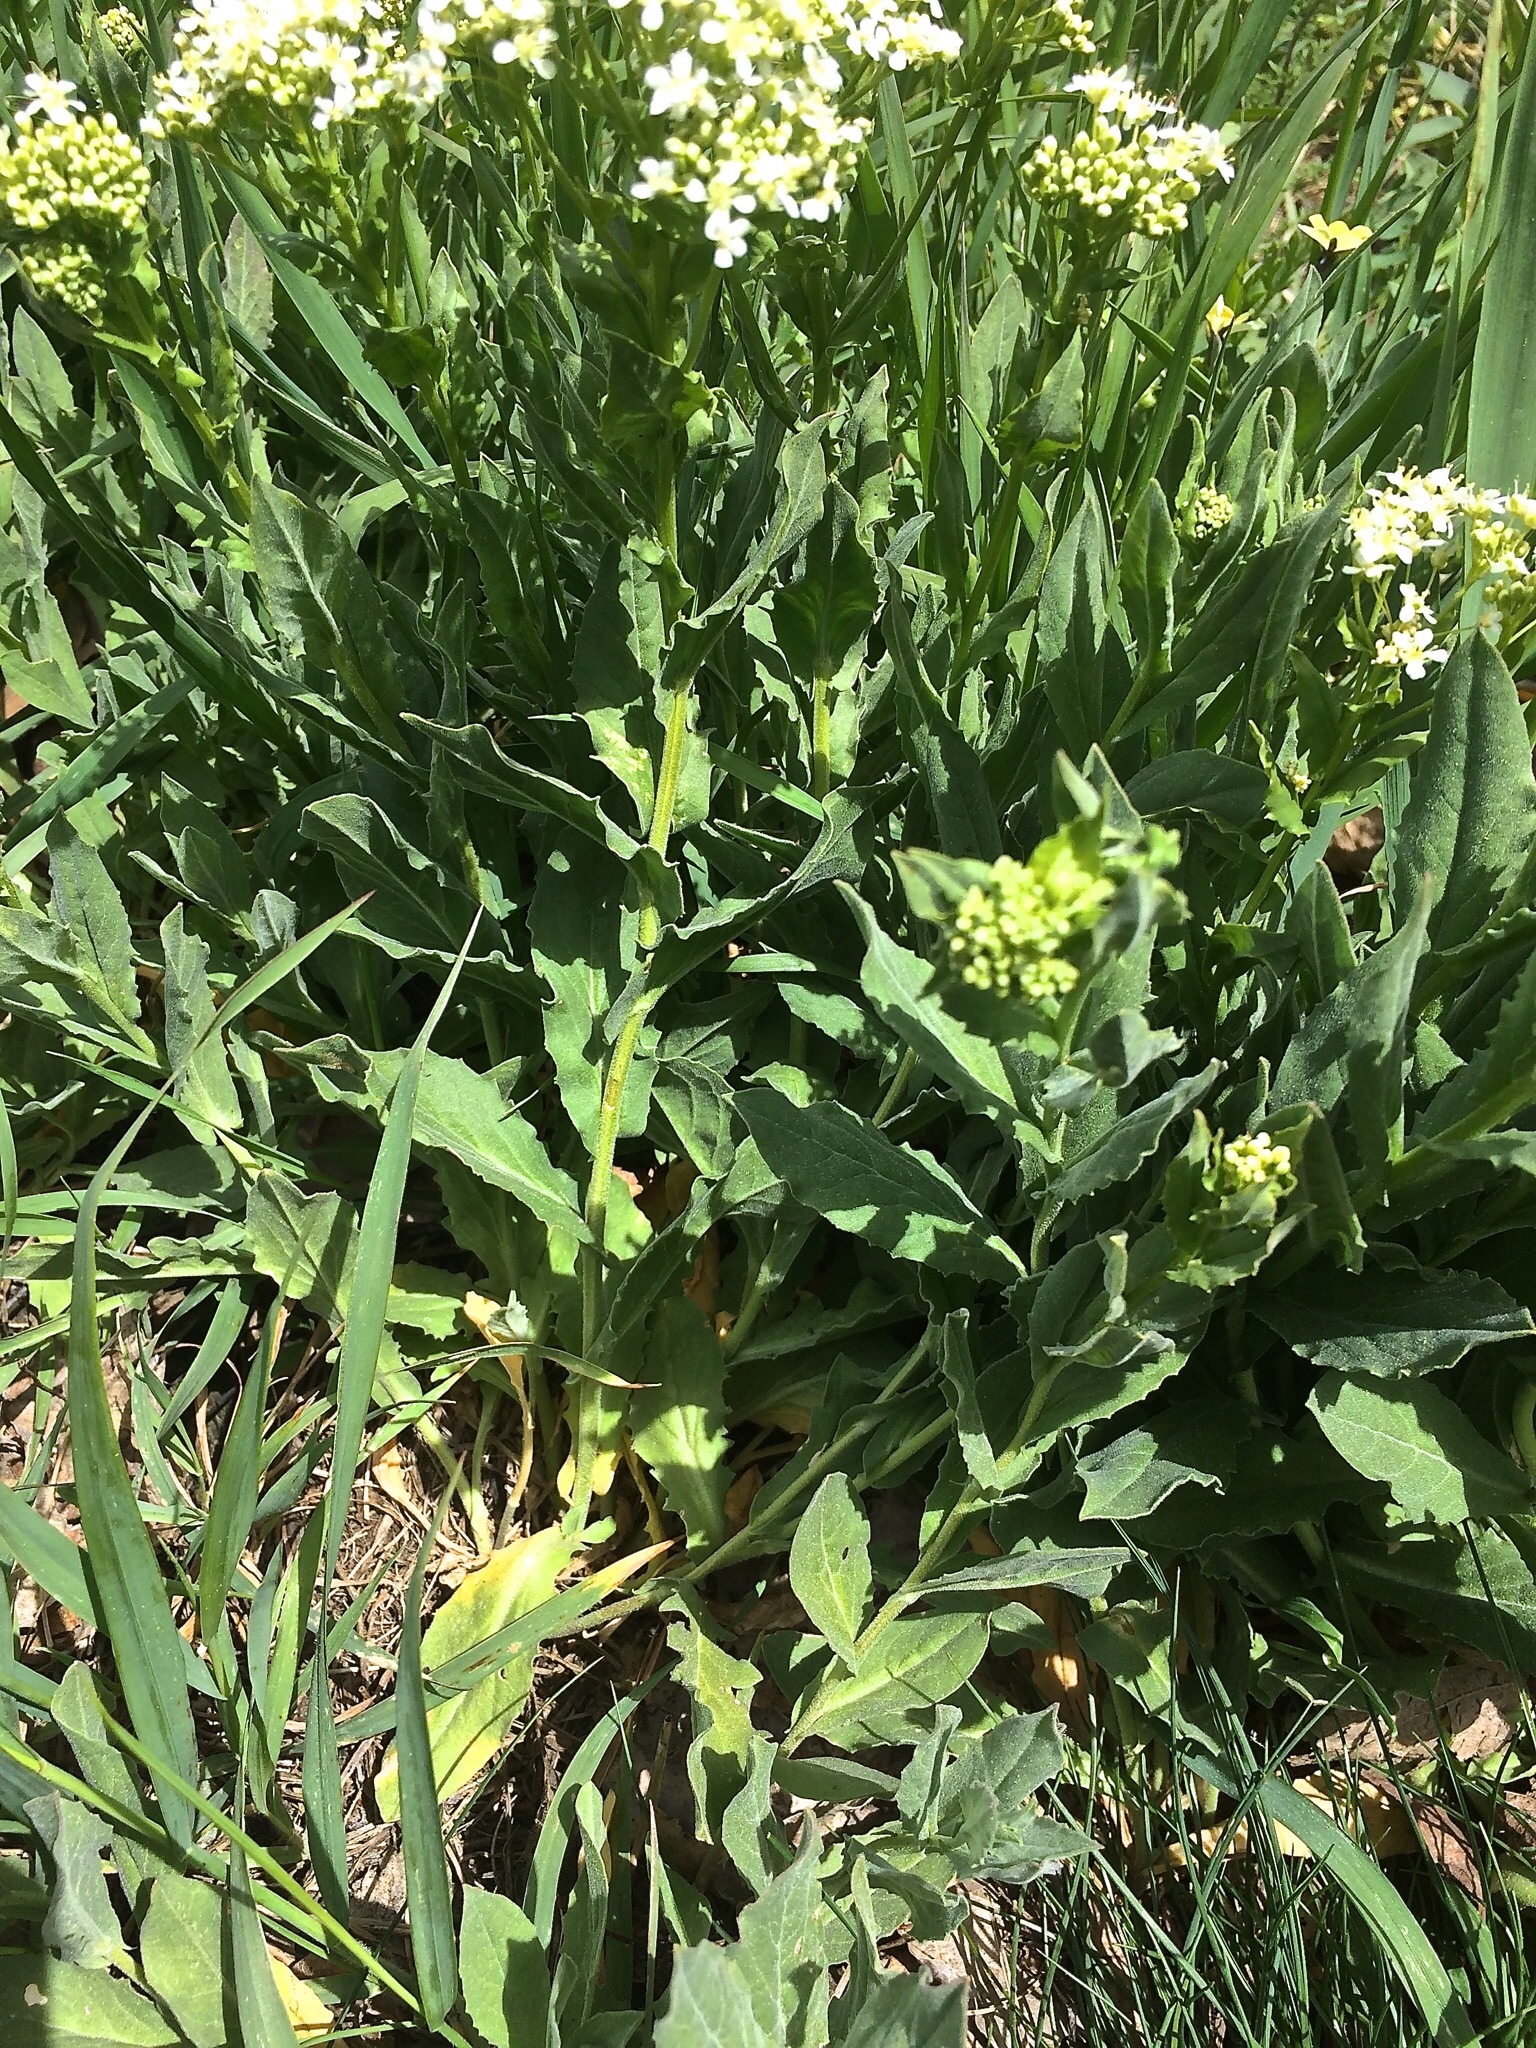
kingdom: Plantae
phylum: Tracheophyta
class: Magnoliopsida
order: Brassicales
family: Brassicaceae
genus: Lepidium
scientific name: Lepidium draba
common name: Hoary cress
